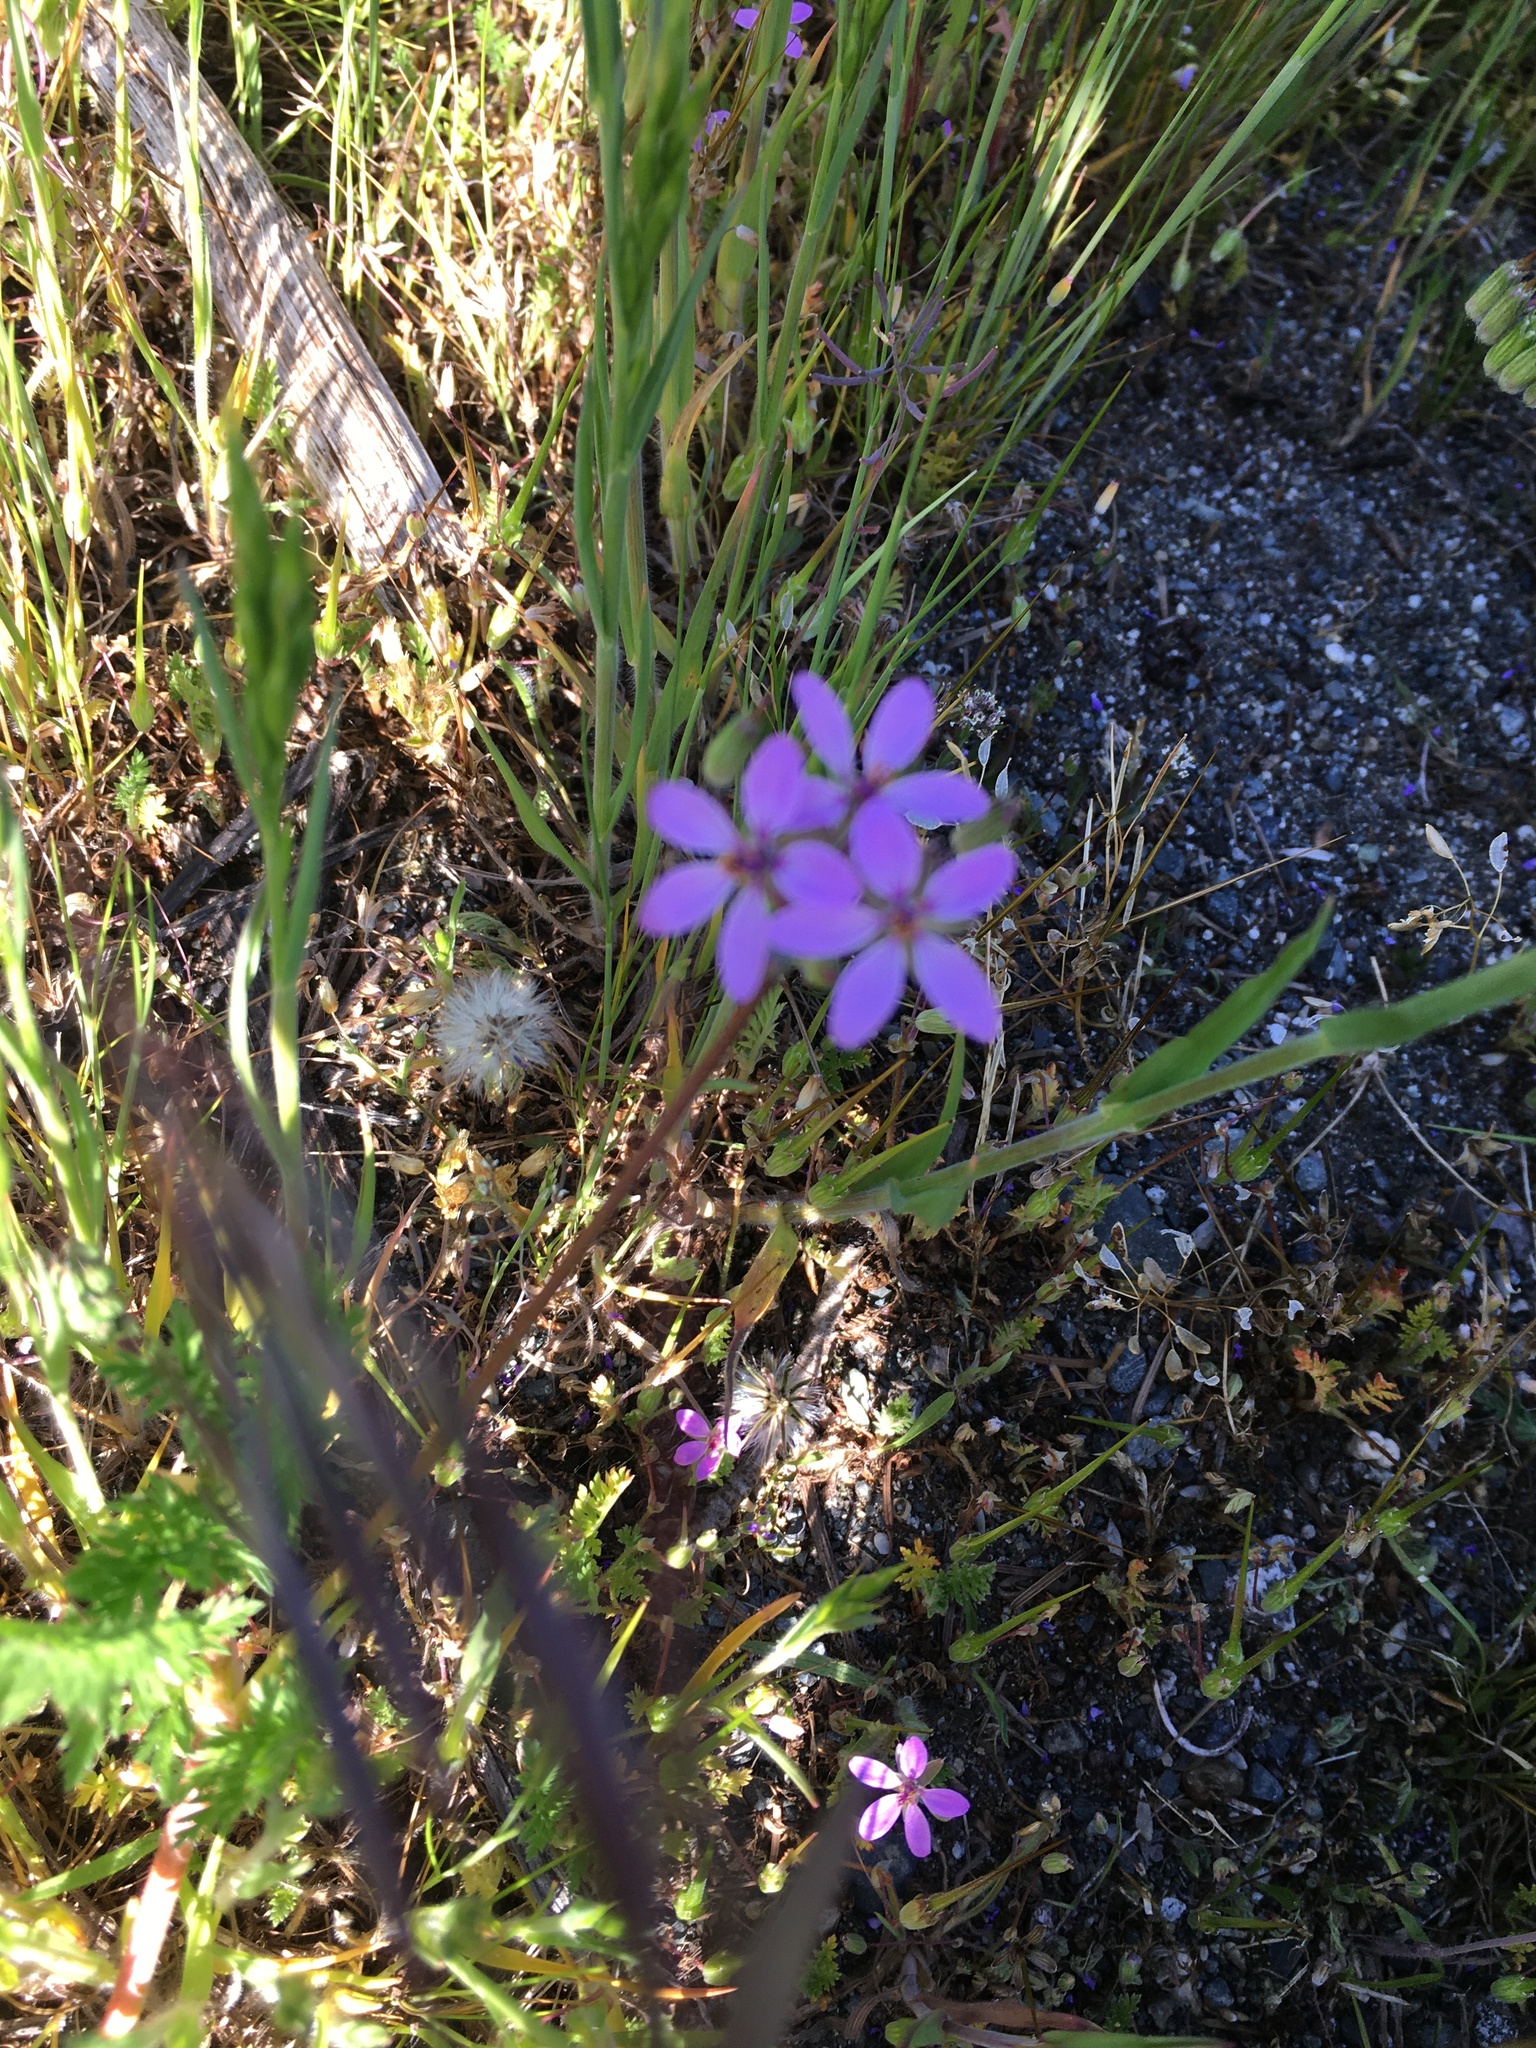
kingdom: Plantae
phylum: Tracheophyta
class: Magnoliopsida
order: Geraniales
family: Geraniaceae
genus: Erodium
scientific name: Erodium cicutarium
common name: Common stork's-bill
